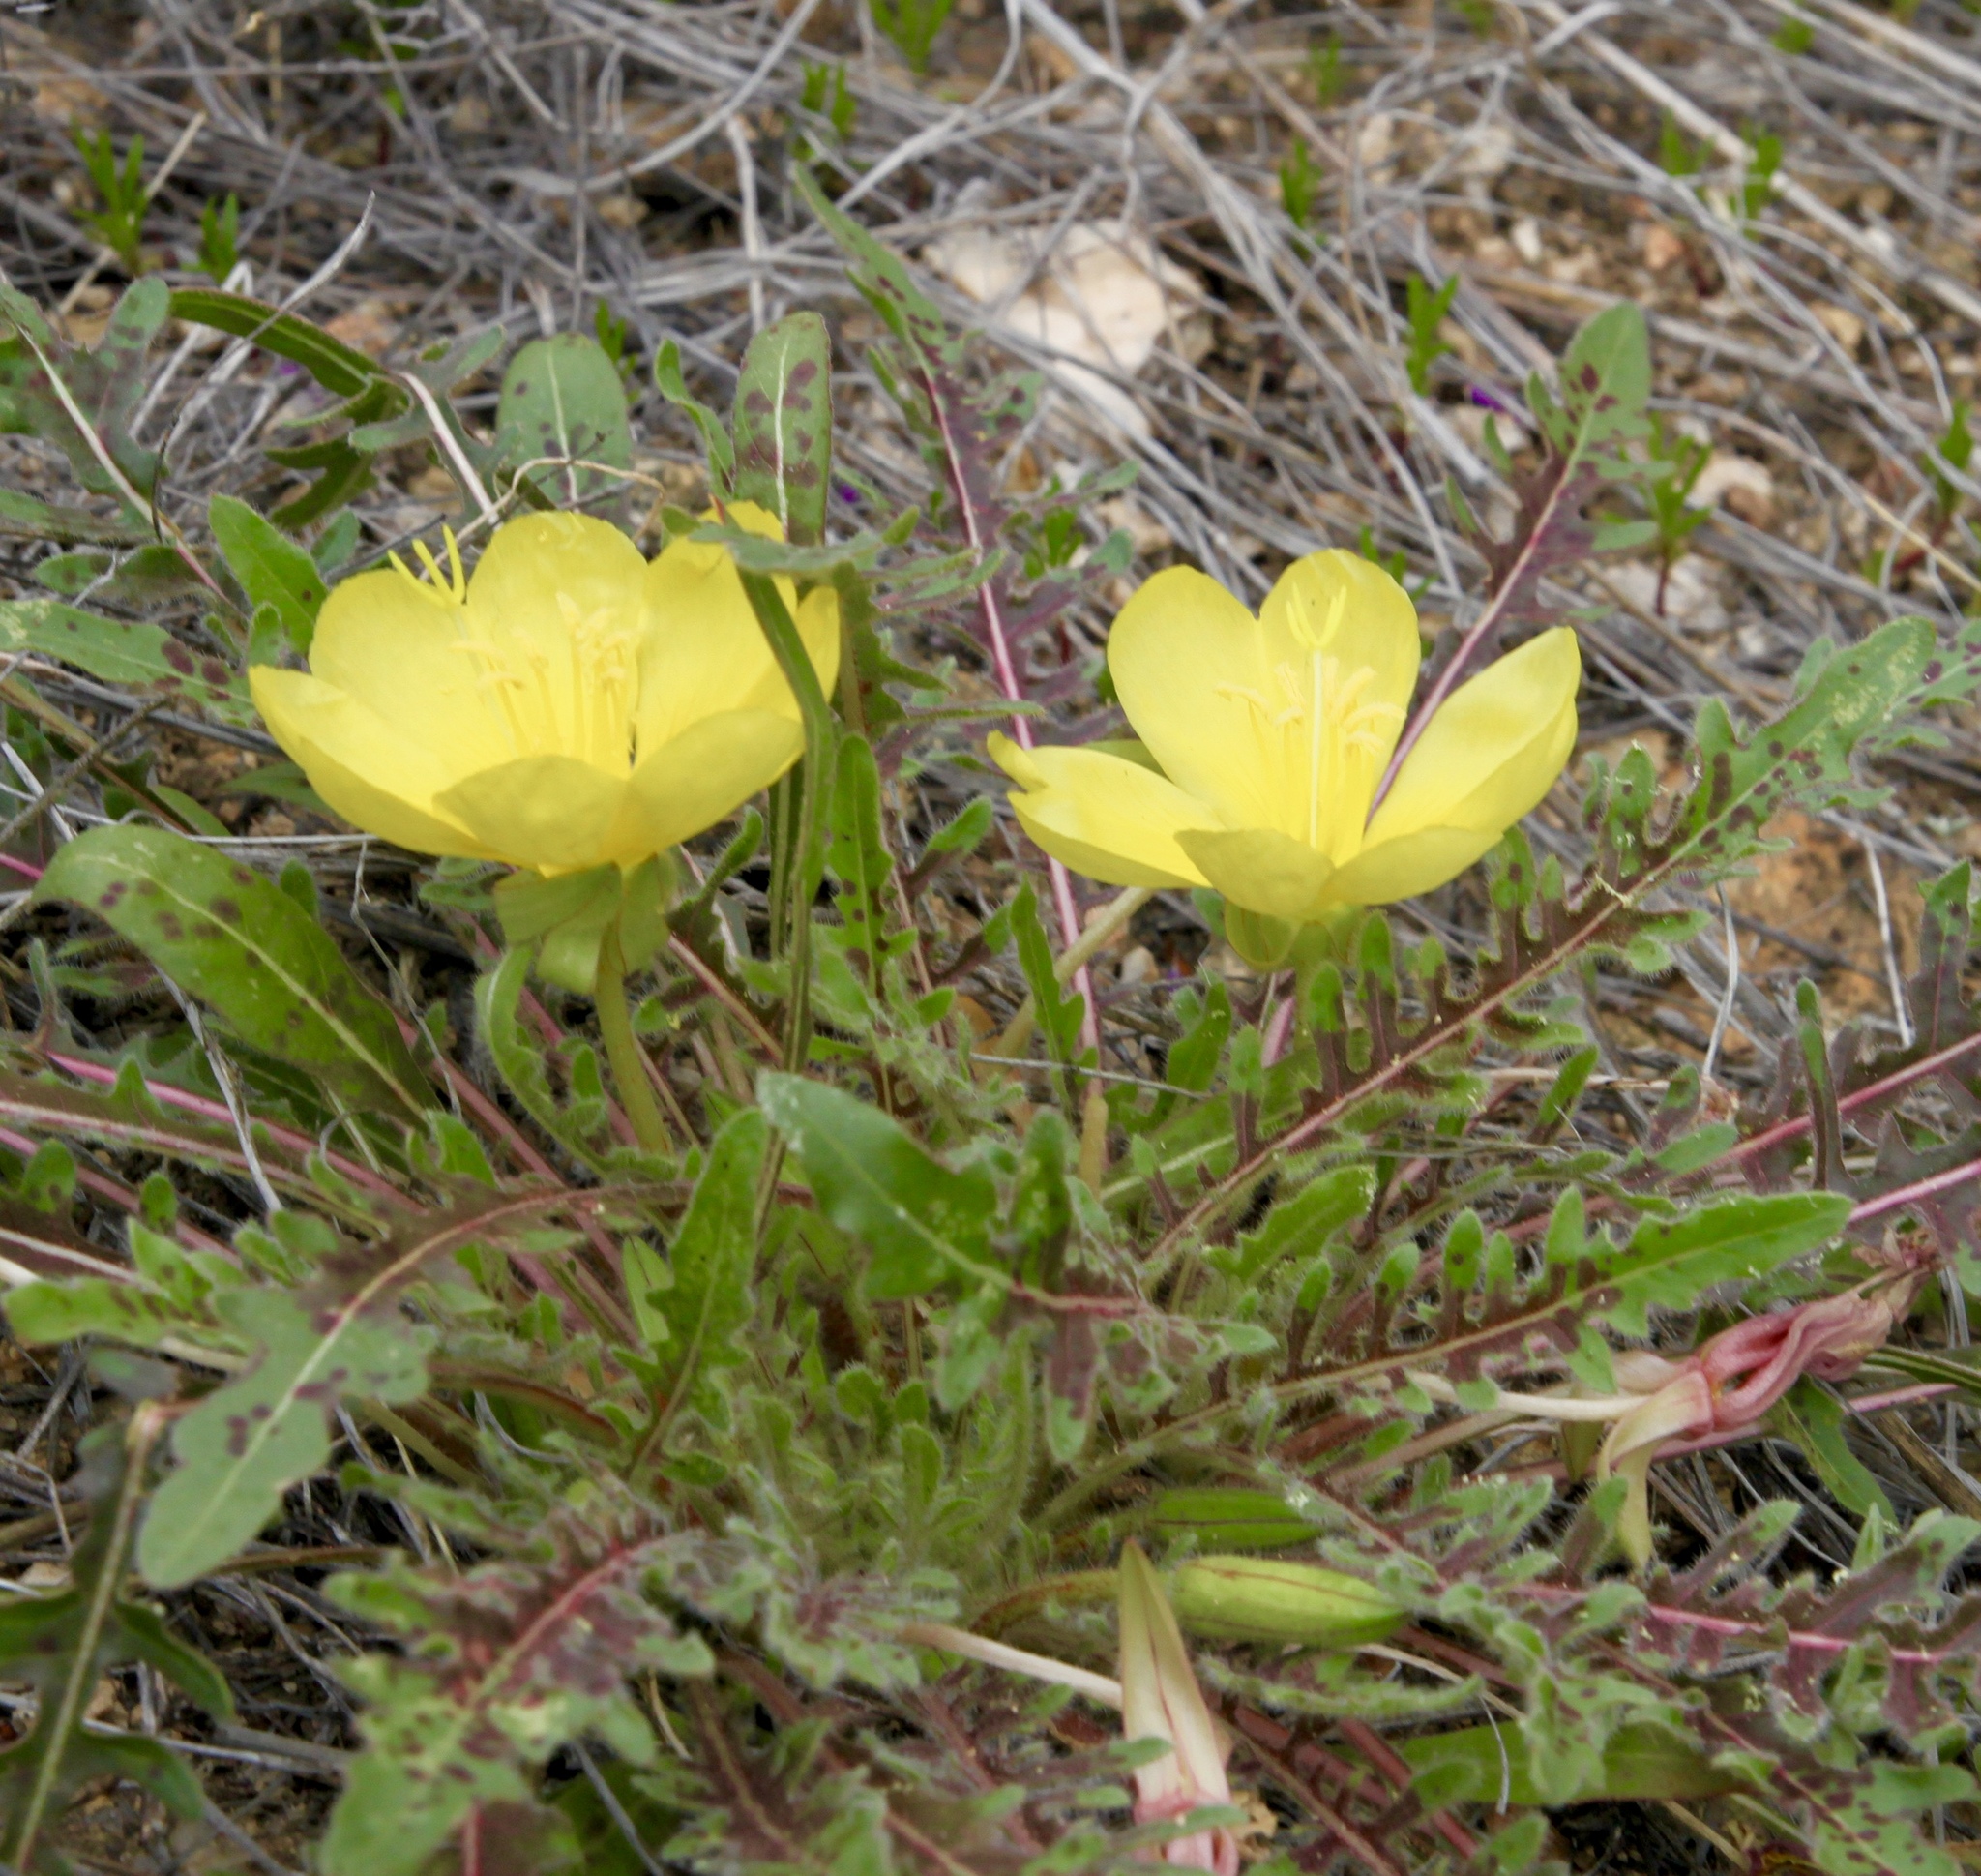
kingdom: Plantae
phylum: Tracheophyta
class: Magnoliopsida
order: Myrtales
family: Onagraceae
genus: Oenothera
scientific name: Oenothera primiveris
